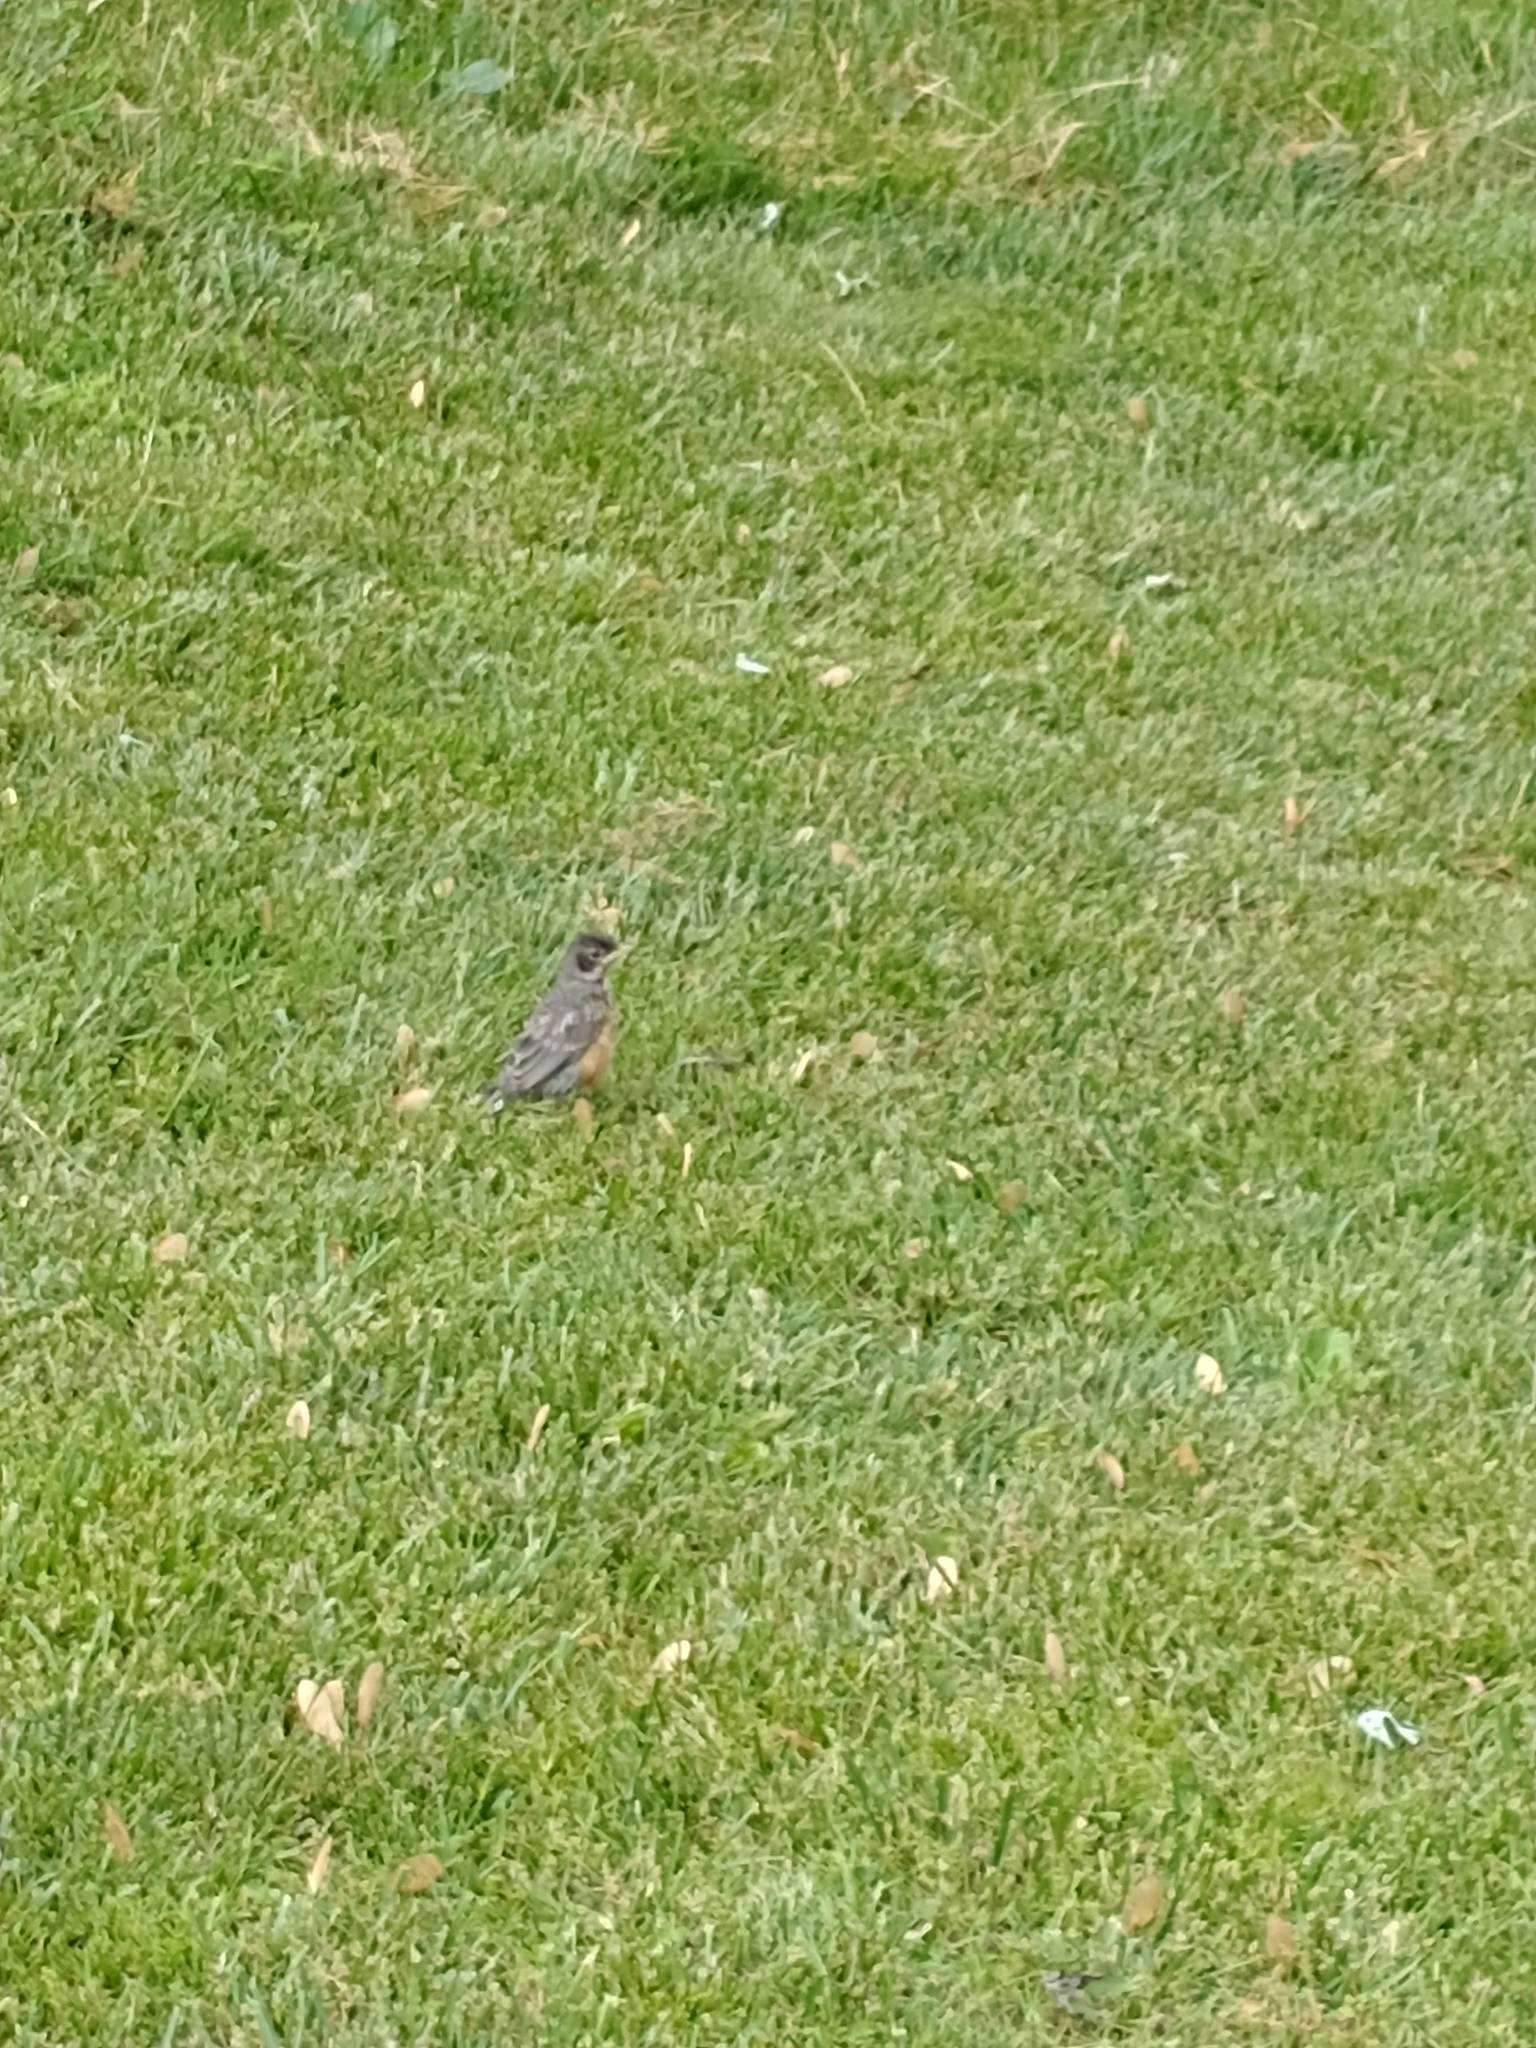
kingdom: Animalia
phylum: Chordata
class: Aves
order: Passeriformes
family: Turdidae
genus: Turdus
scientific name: Turdus migratorius
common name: American robin
